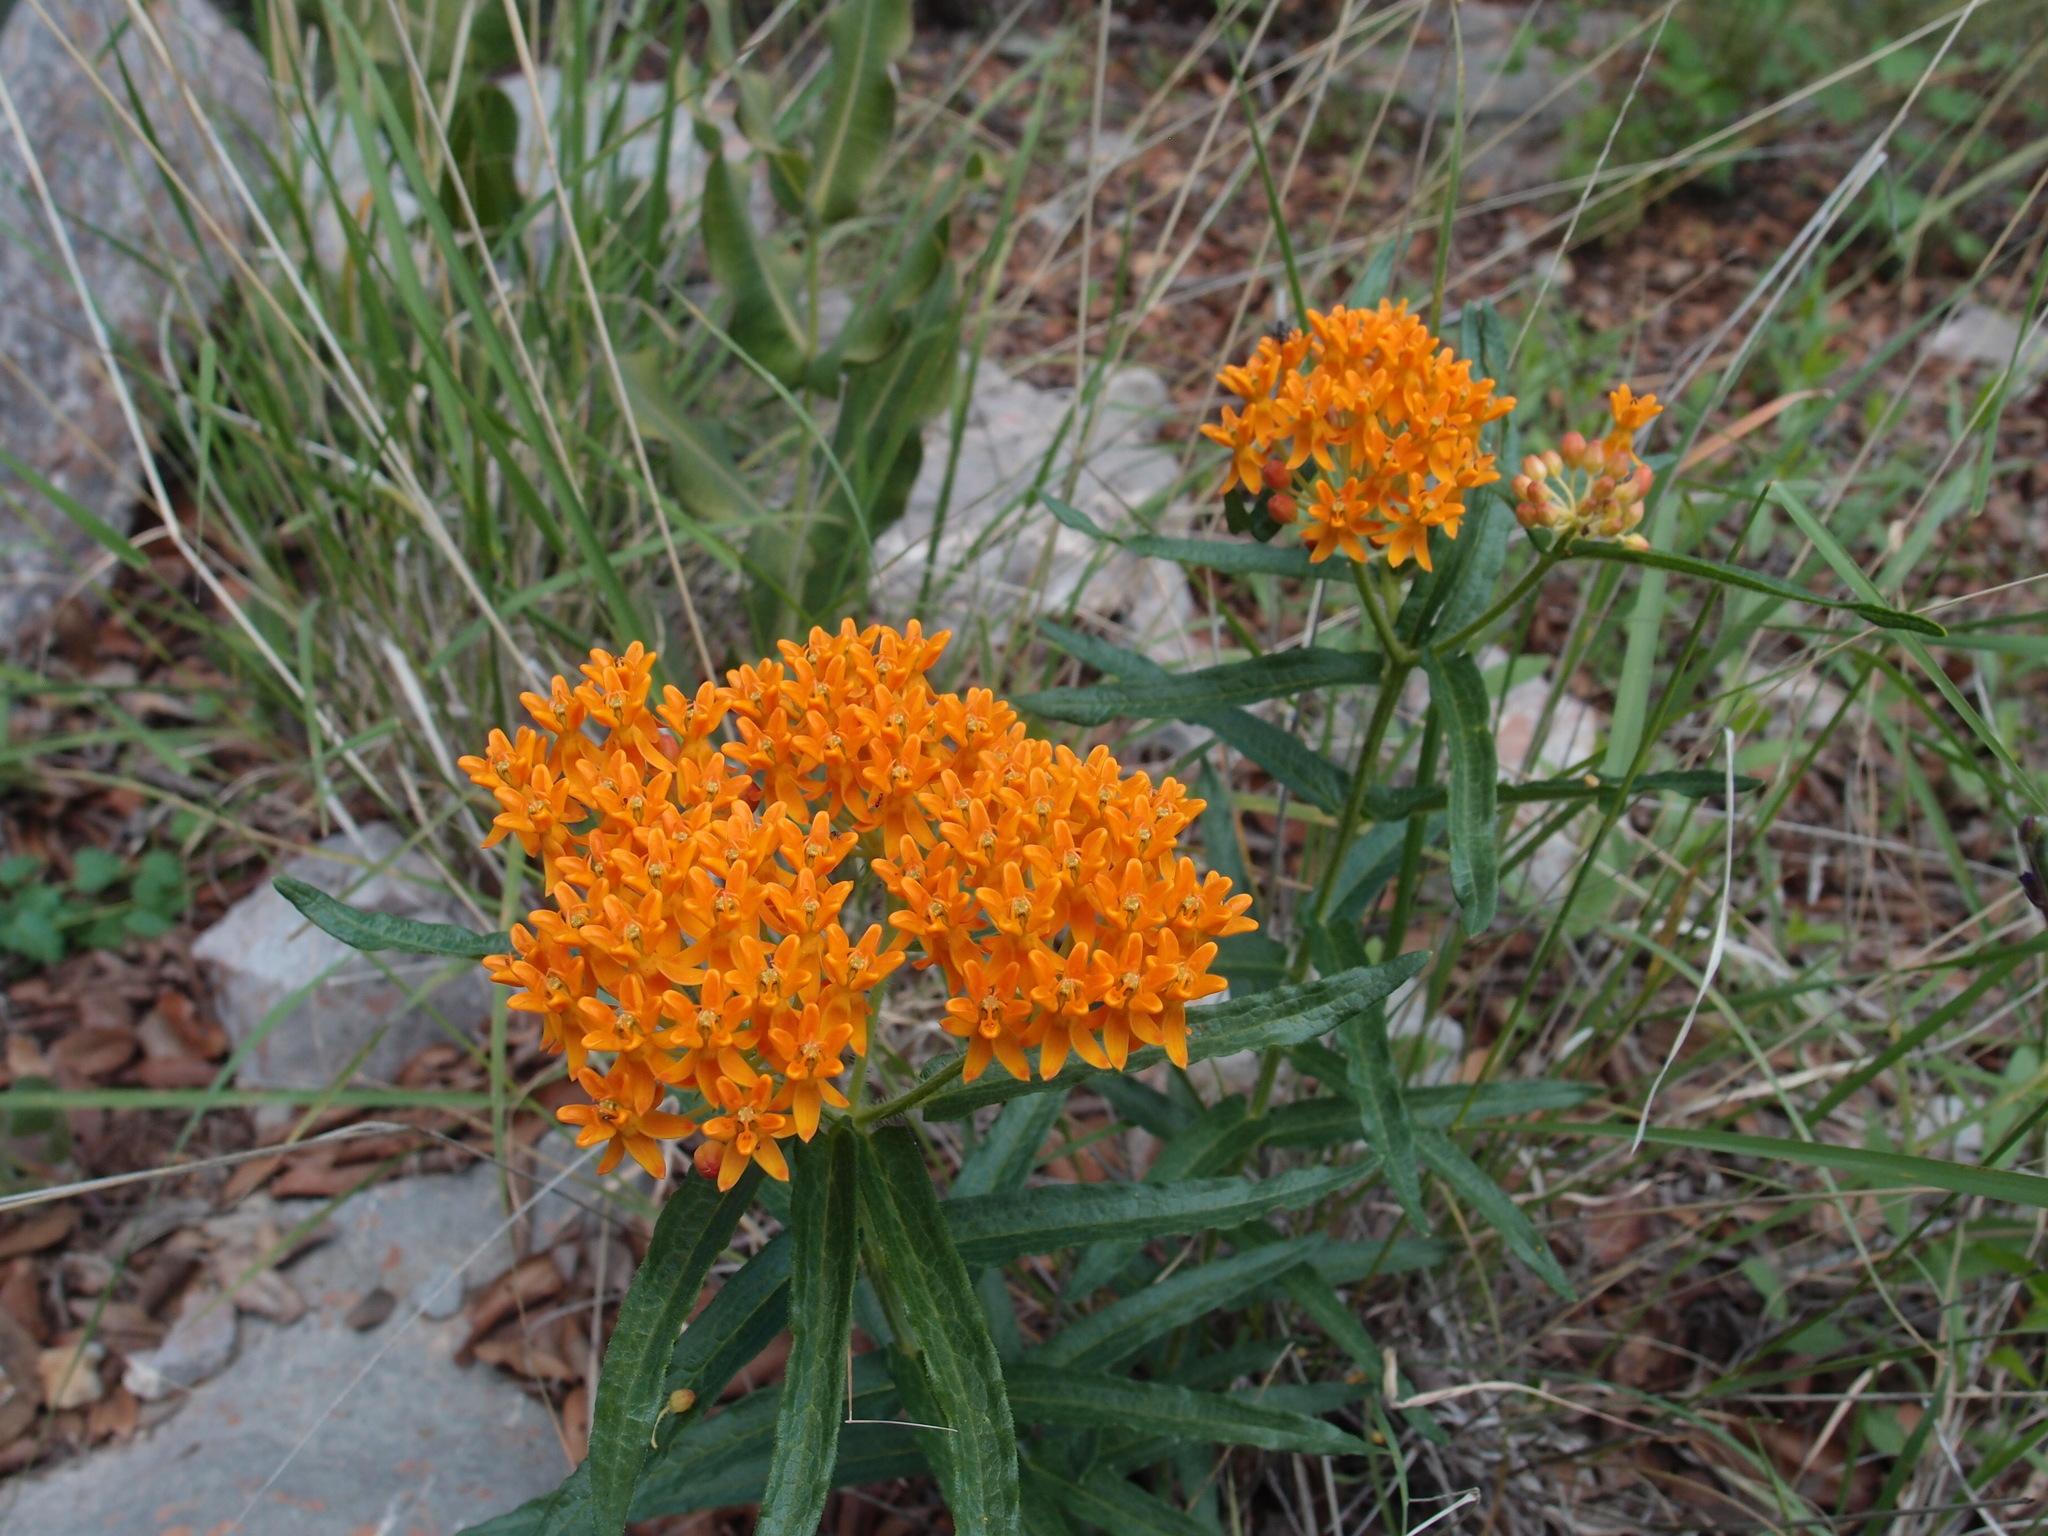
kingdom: Plantae
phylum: Tracheophyta
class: Magnoliopsida
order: Gentianales
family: Apocynaceae
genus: Asclepias
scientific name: Asclepias tuberosa
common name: Butterfly milkweed
